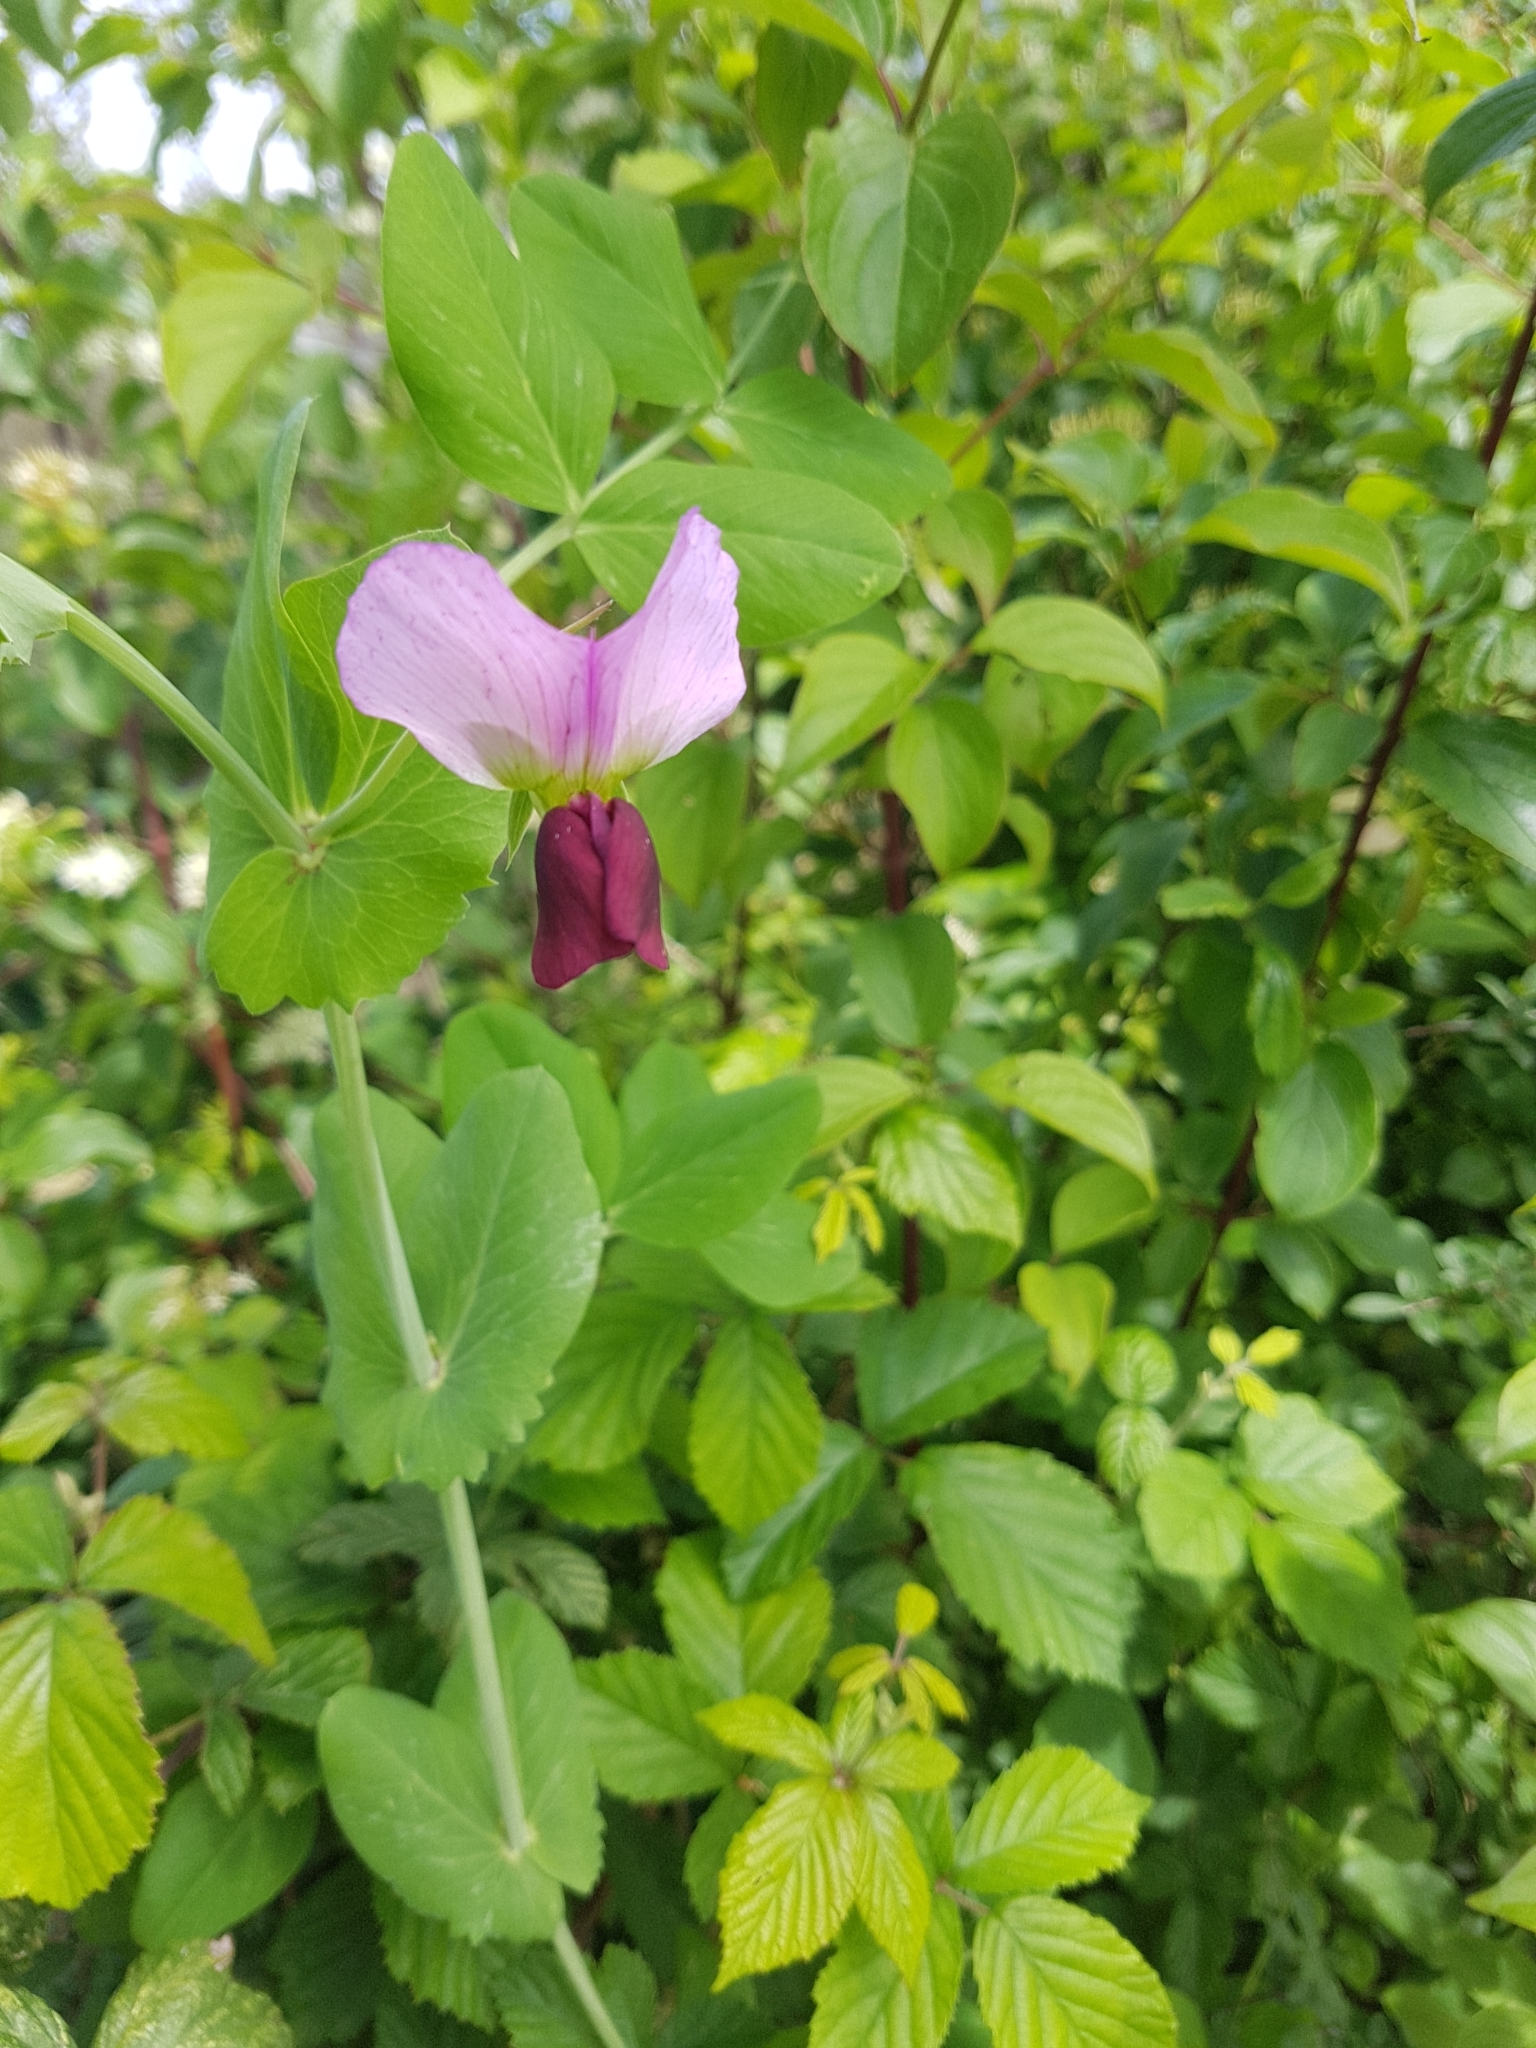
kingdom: Plantae
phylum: Tracheophyta
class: Magnoliopsida
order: Fabales
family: Fabaceae
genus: Lathyrus
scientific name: Lathyrus oleraceus
